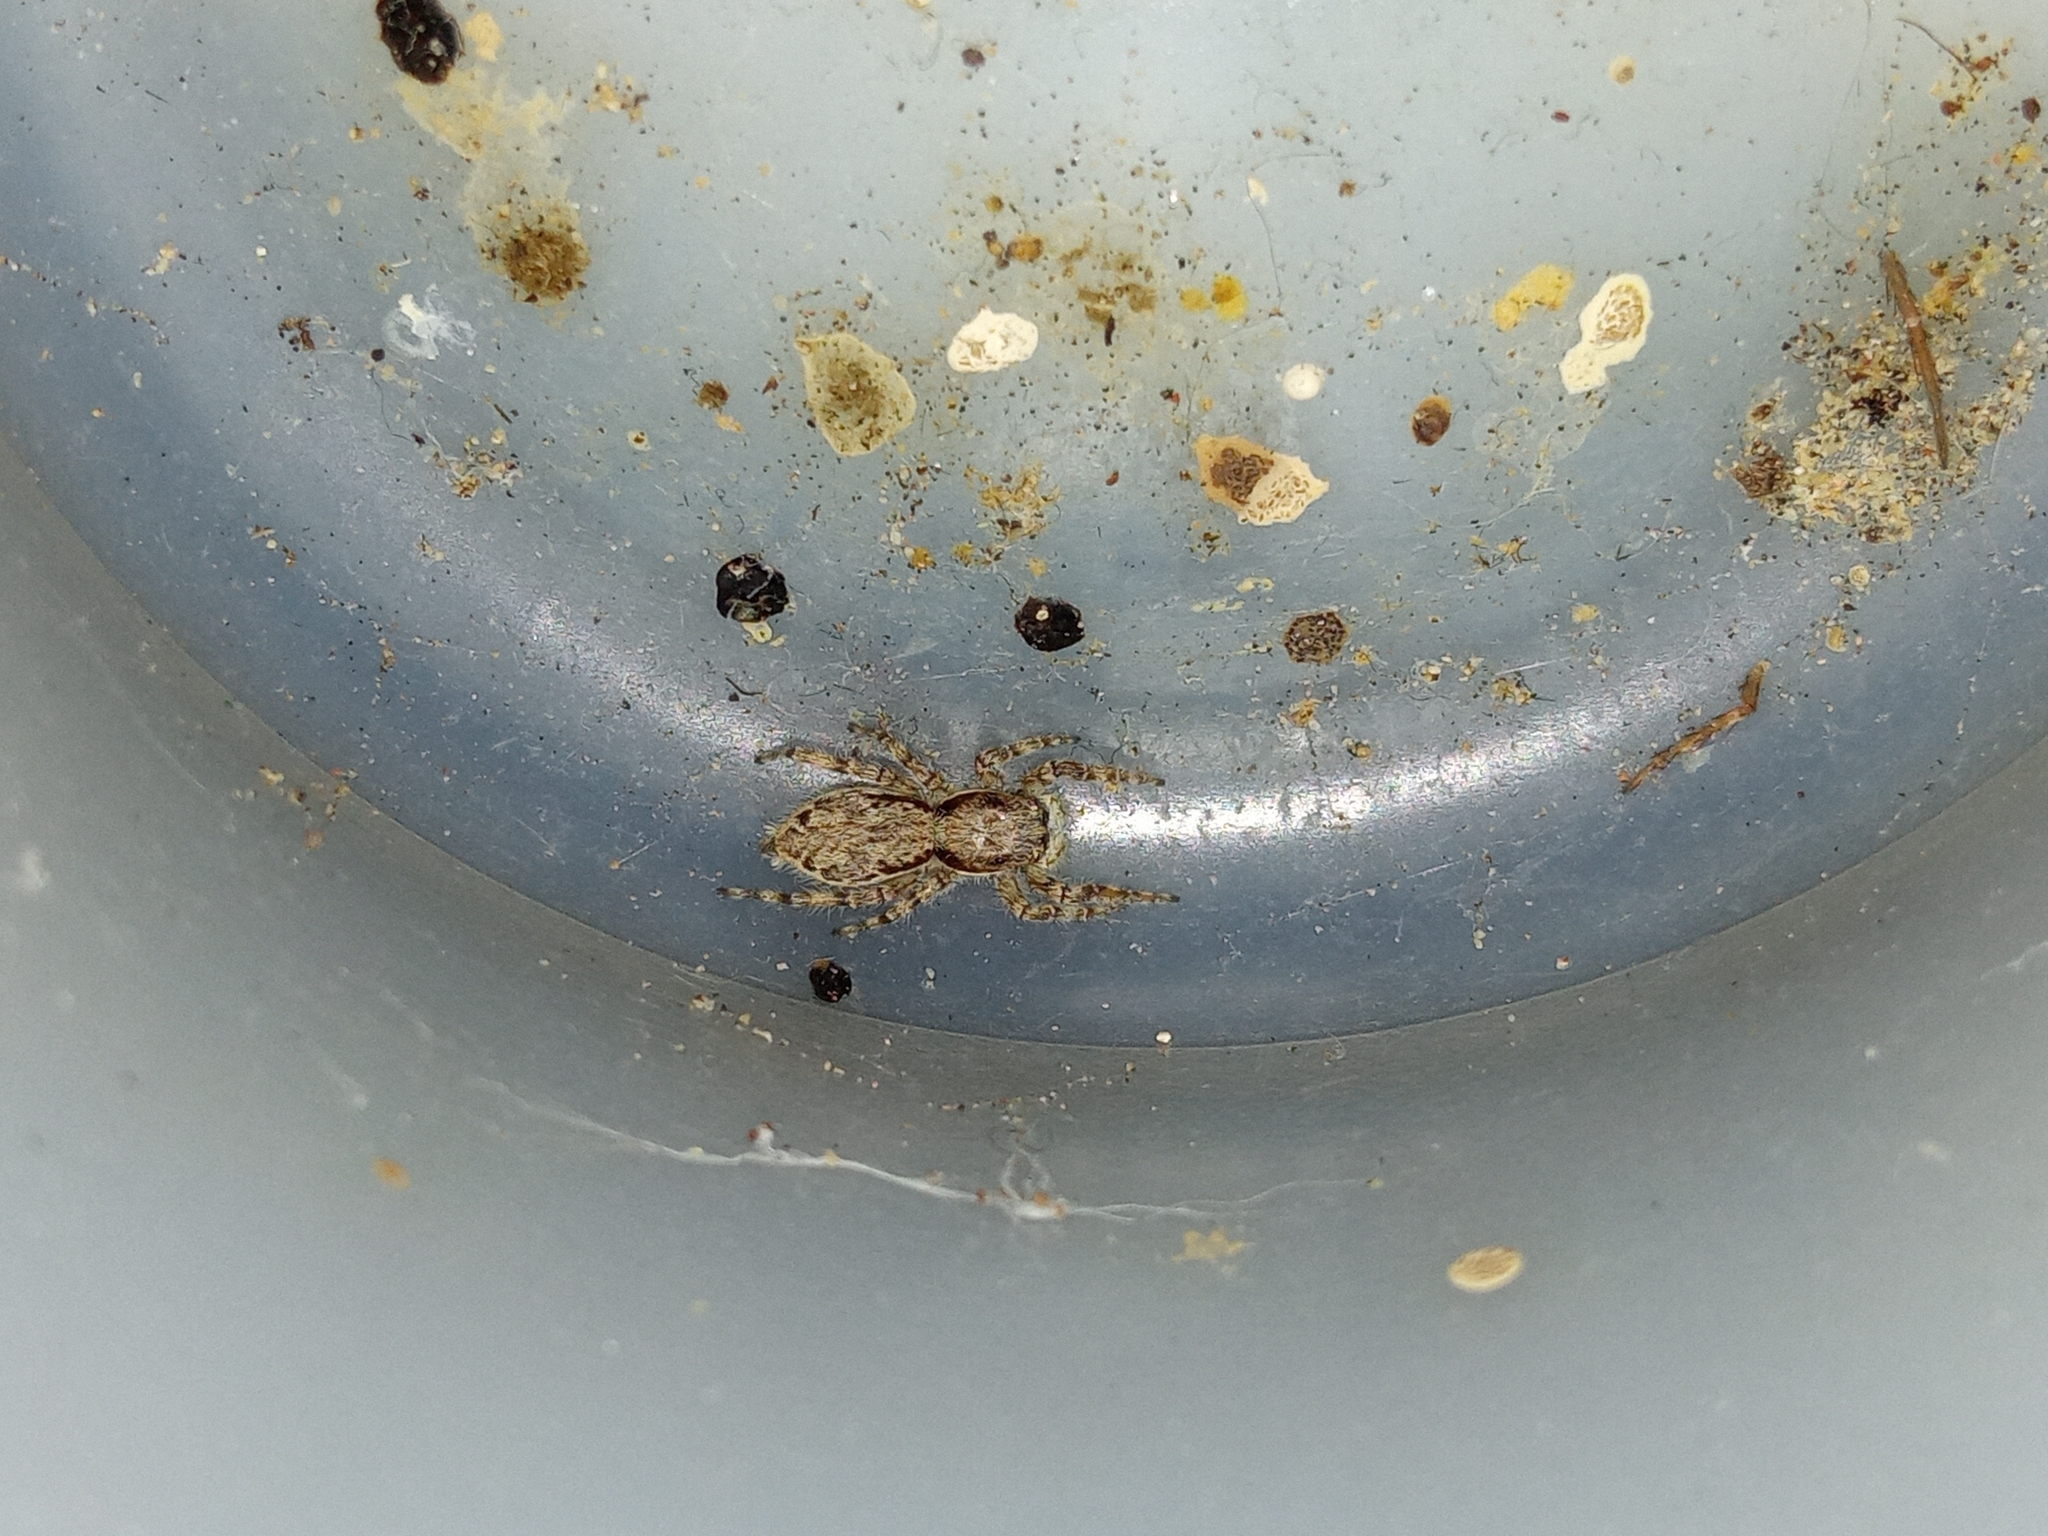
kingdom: Animalia
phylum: Arthropoda
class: Arachnida
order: Araneae
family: Salticidae
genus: Menemerus
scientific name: Menemerus bivittatus
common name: Gray wall jumper
